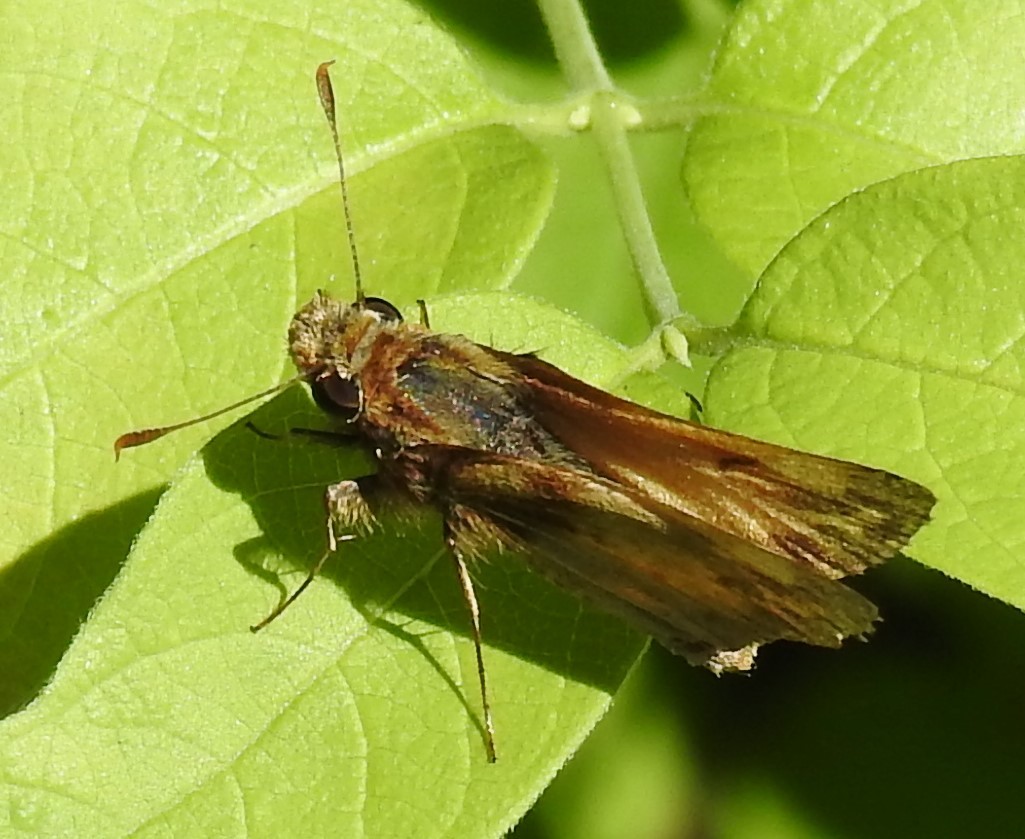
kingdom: Animalia
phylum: Arthropoda
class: Insecta
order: Lepidoptera
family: Hesperiidae
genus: Lon
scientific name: Lon zabulon
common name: Zabulon skipper
